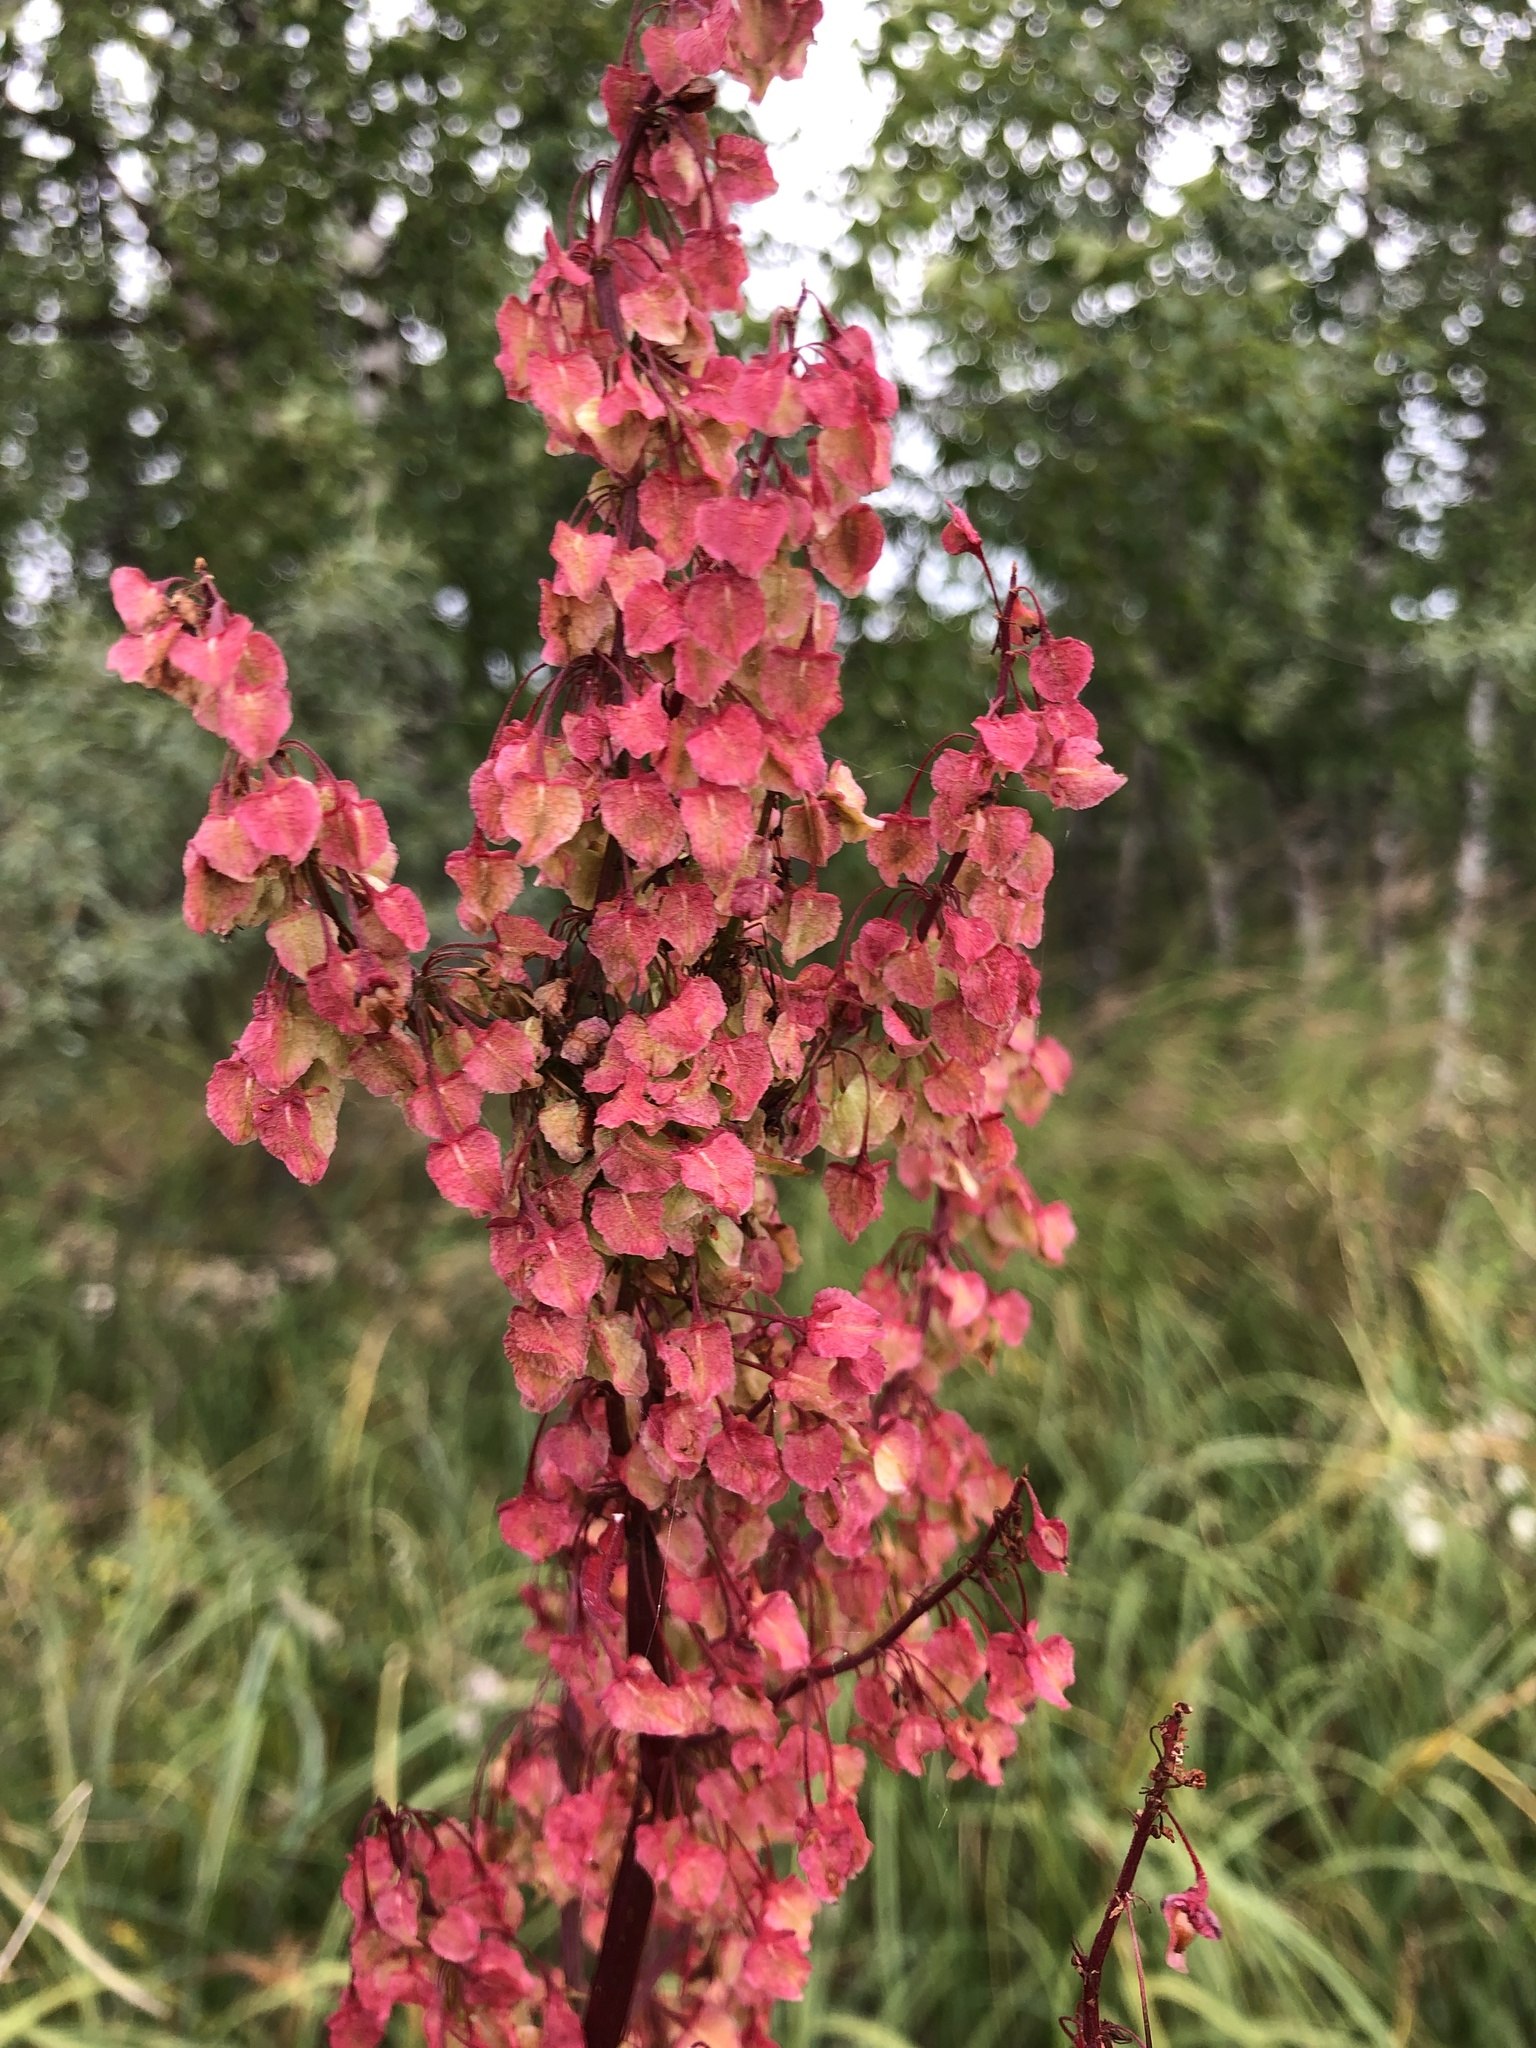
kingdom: Plantae
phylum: Tracheophyta
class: Magnoliopsida
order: Caryophyllales
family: Polygonaceae
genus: Rumex
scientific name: Rumex aquaticus
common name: Scottish dock
